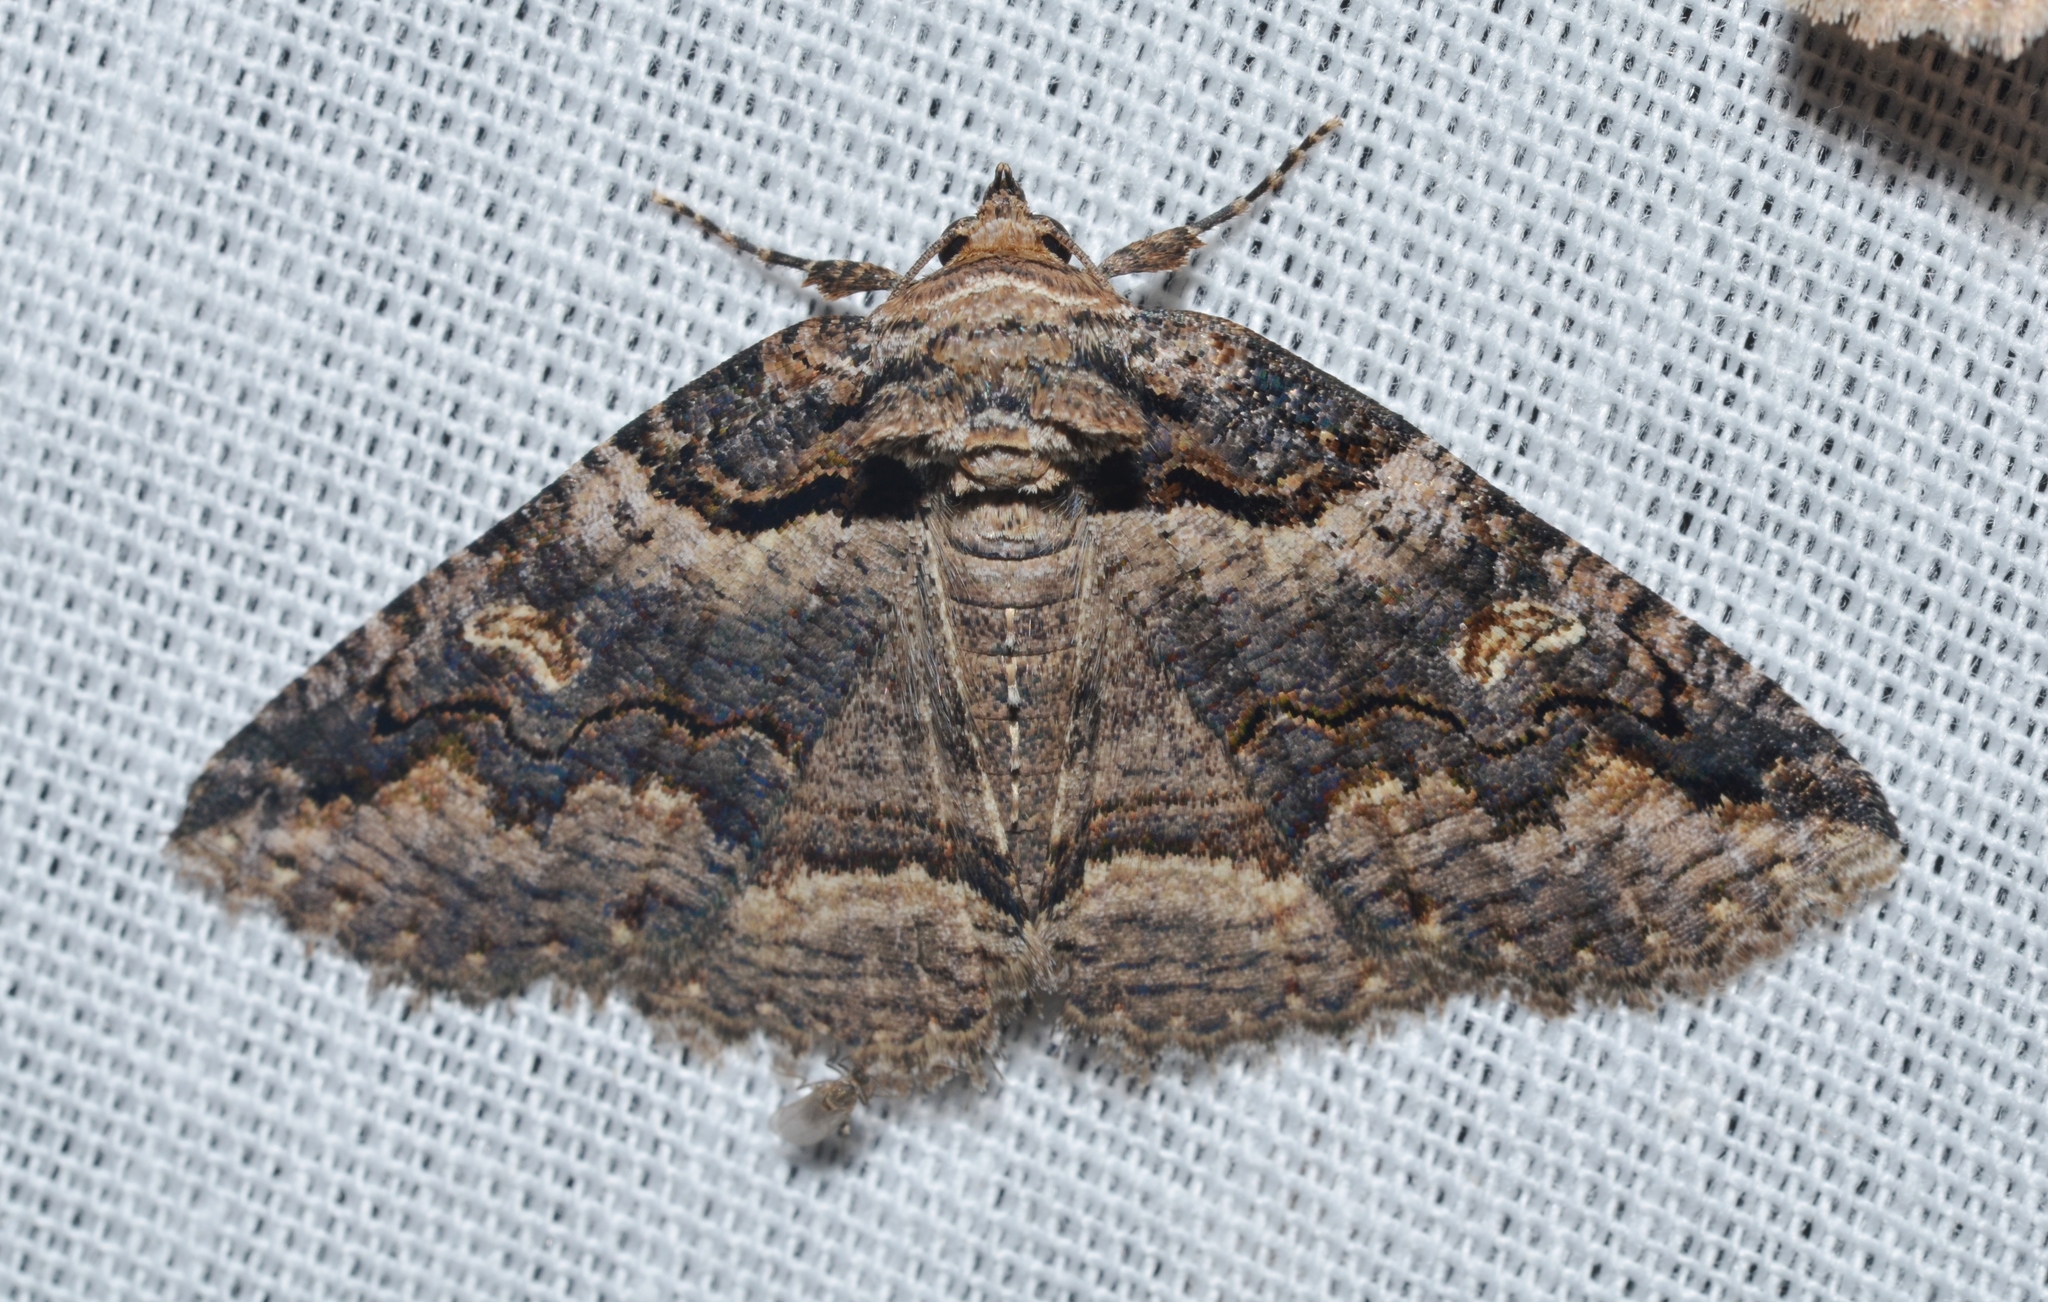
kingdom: Animalia
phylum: Arthropoda
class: Insecta
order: Lepidoptera
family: Erebidae
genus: Zale
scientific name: Zale intenta
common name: Intent zale moth
